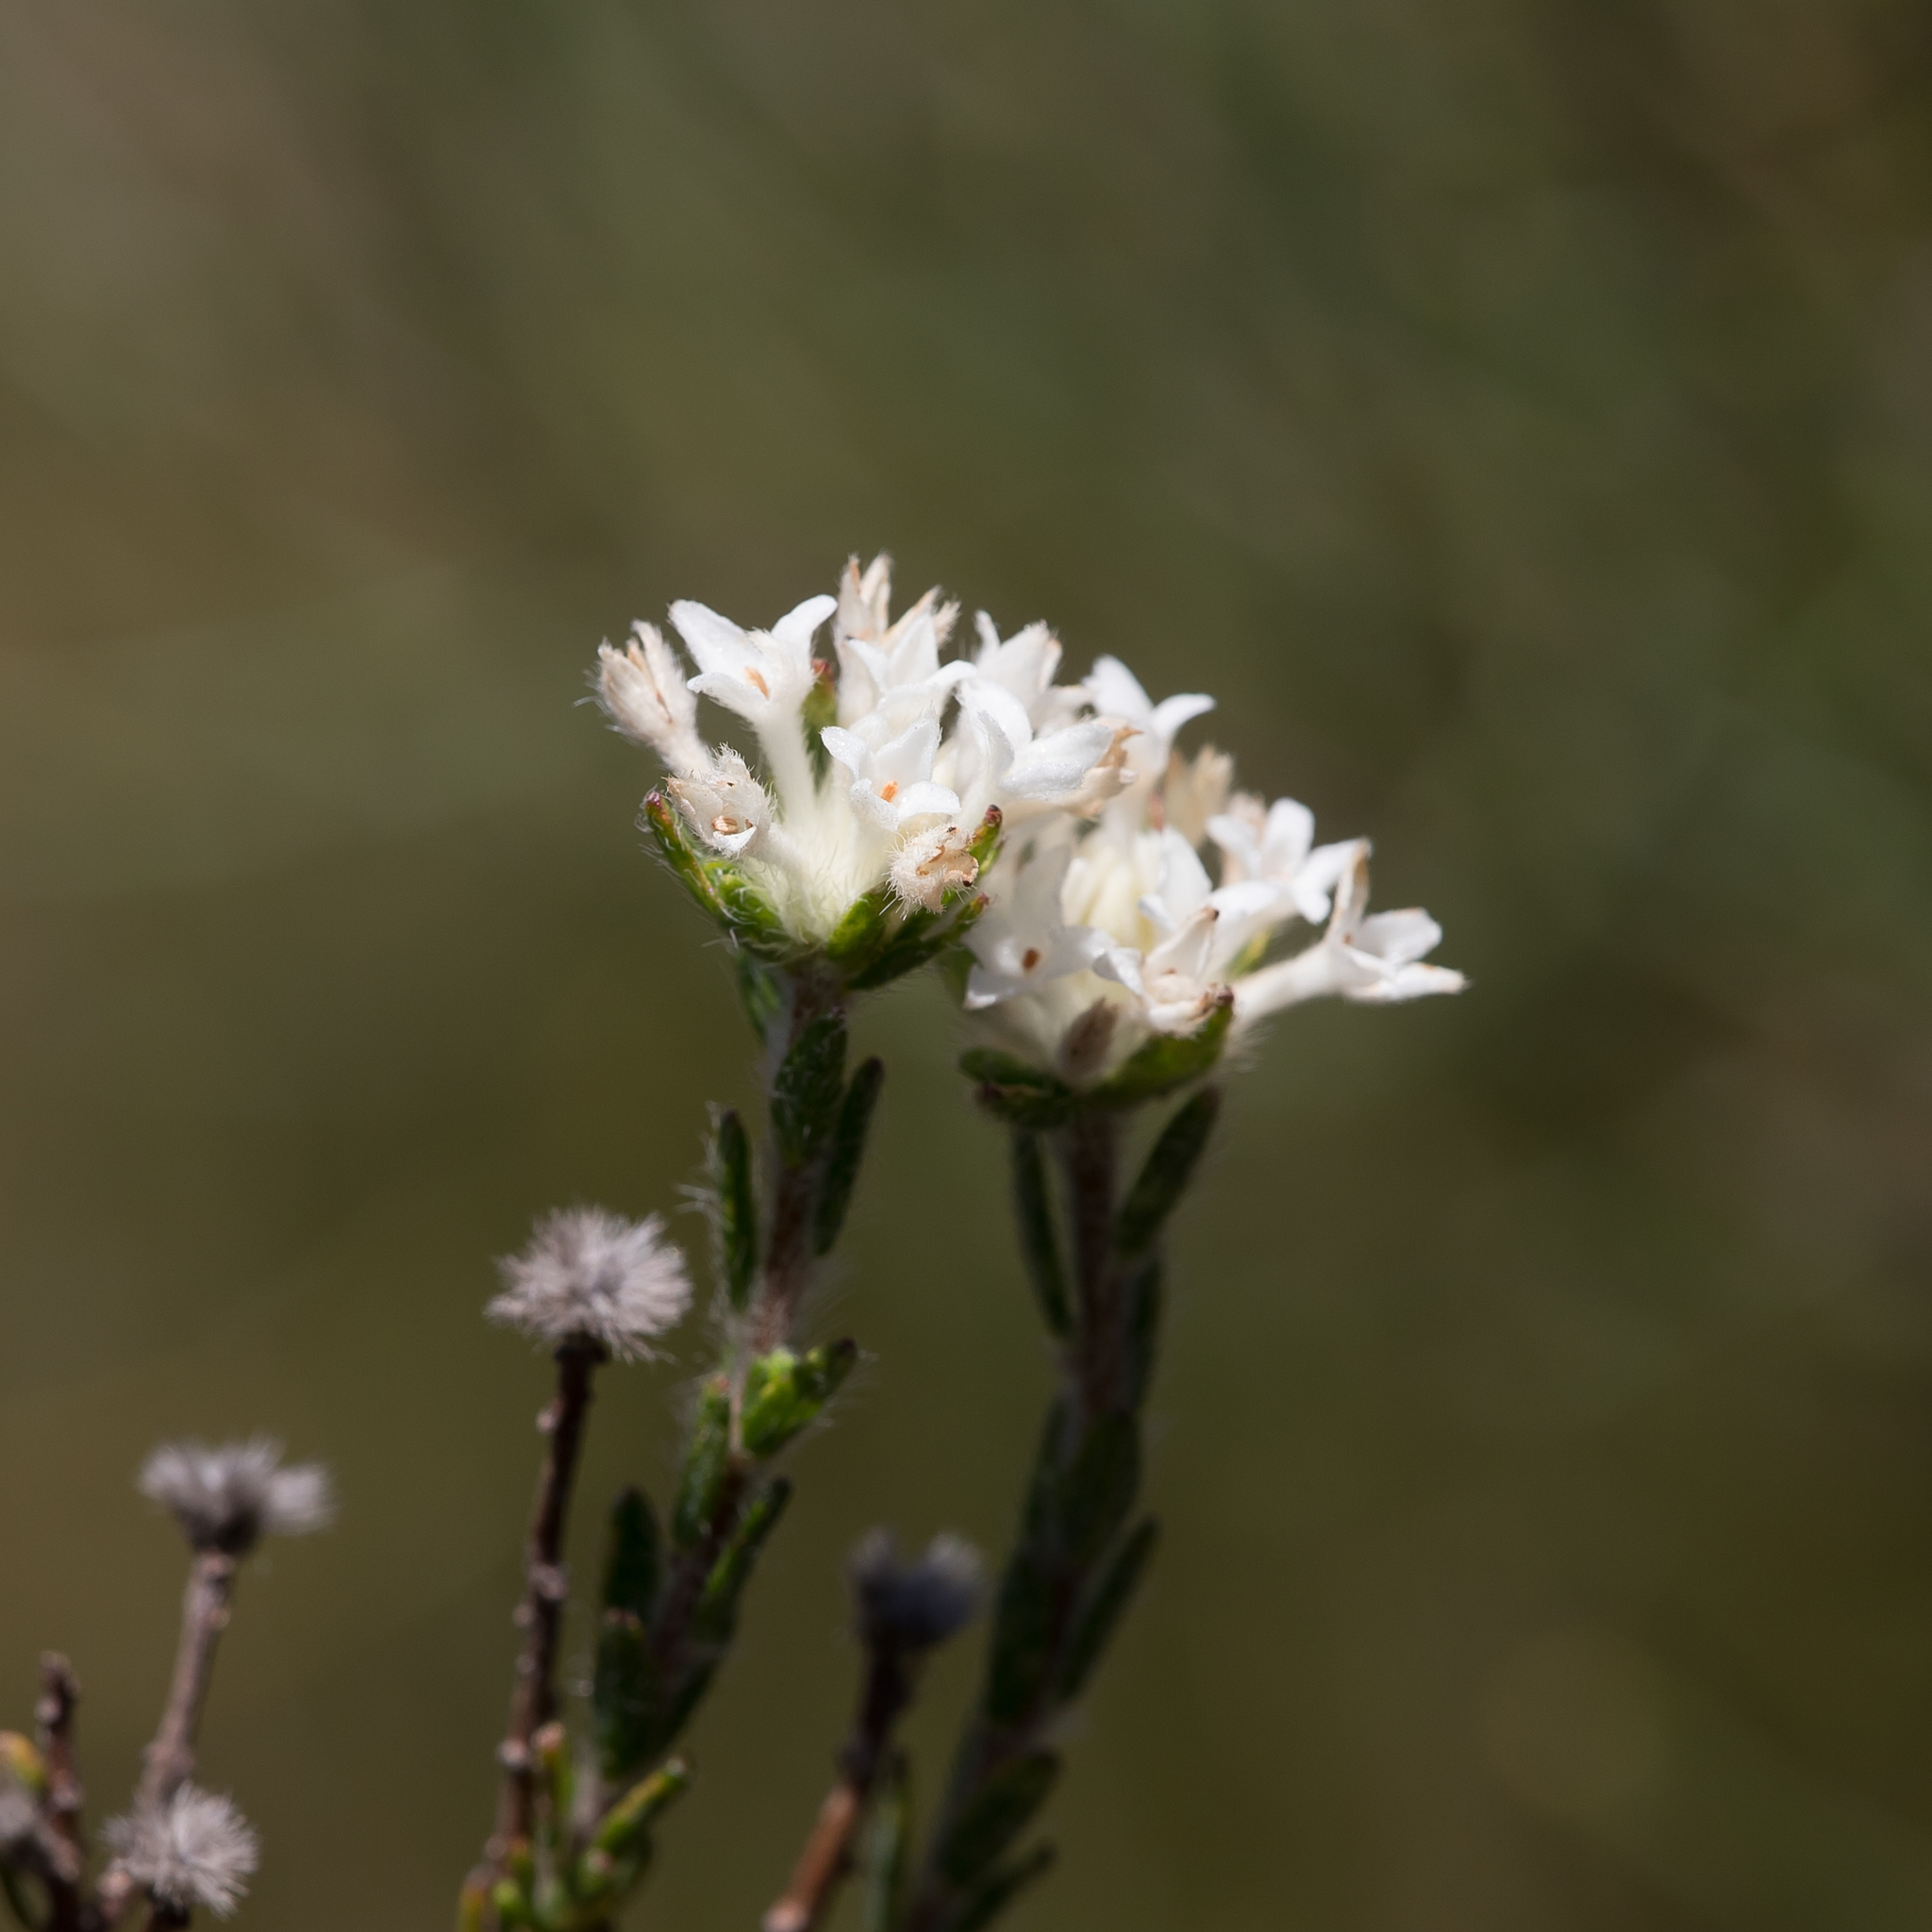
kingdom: Plantae
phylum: Tracheophyta
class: Magnoliopsida
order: Malvales
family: Thymelaeaceae
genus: Pimelea
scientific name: Pimelea phylicoides
